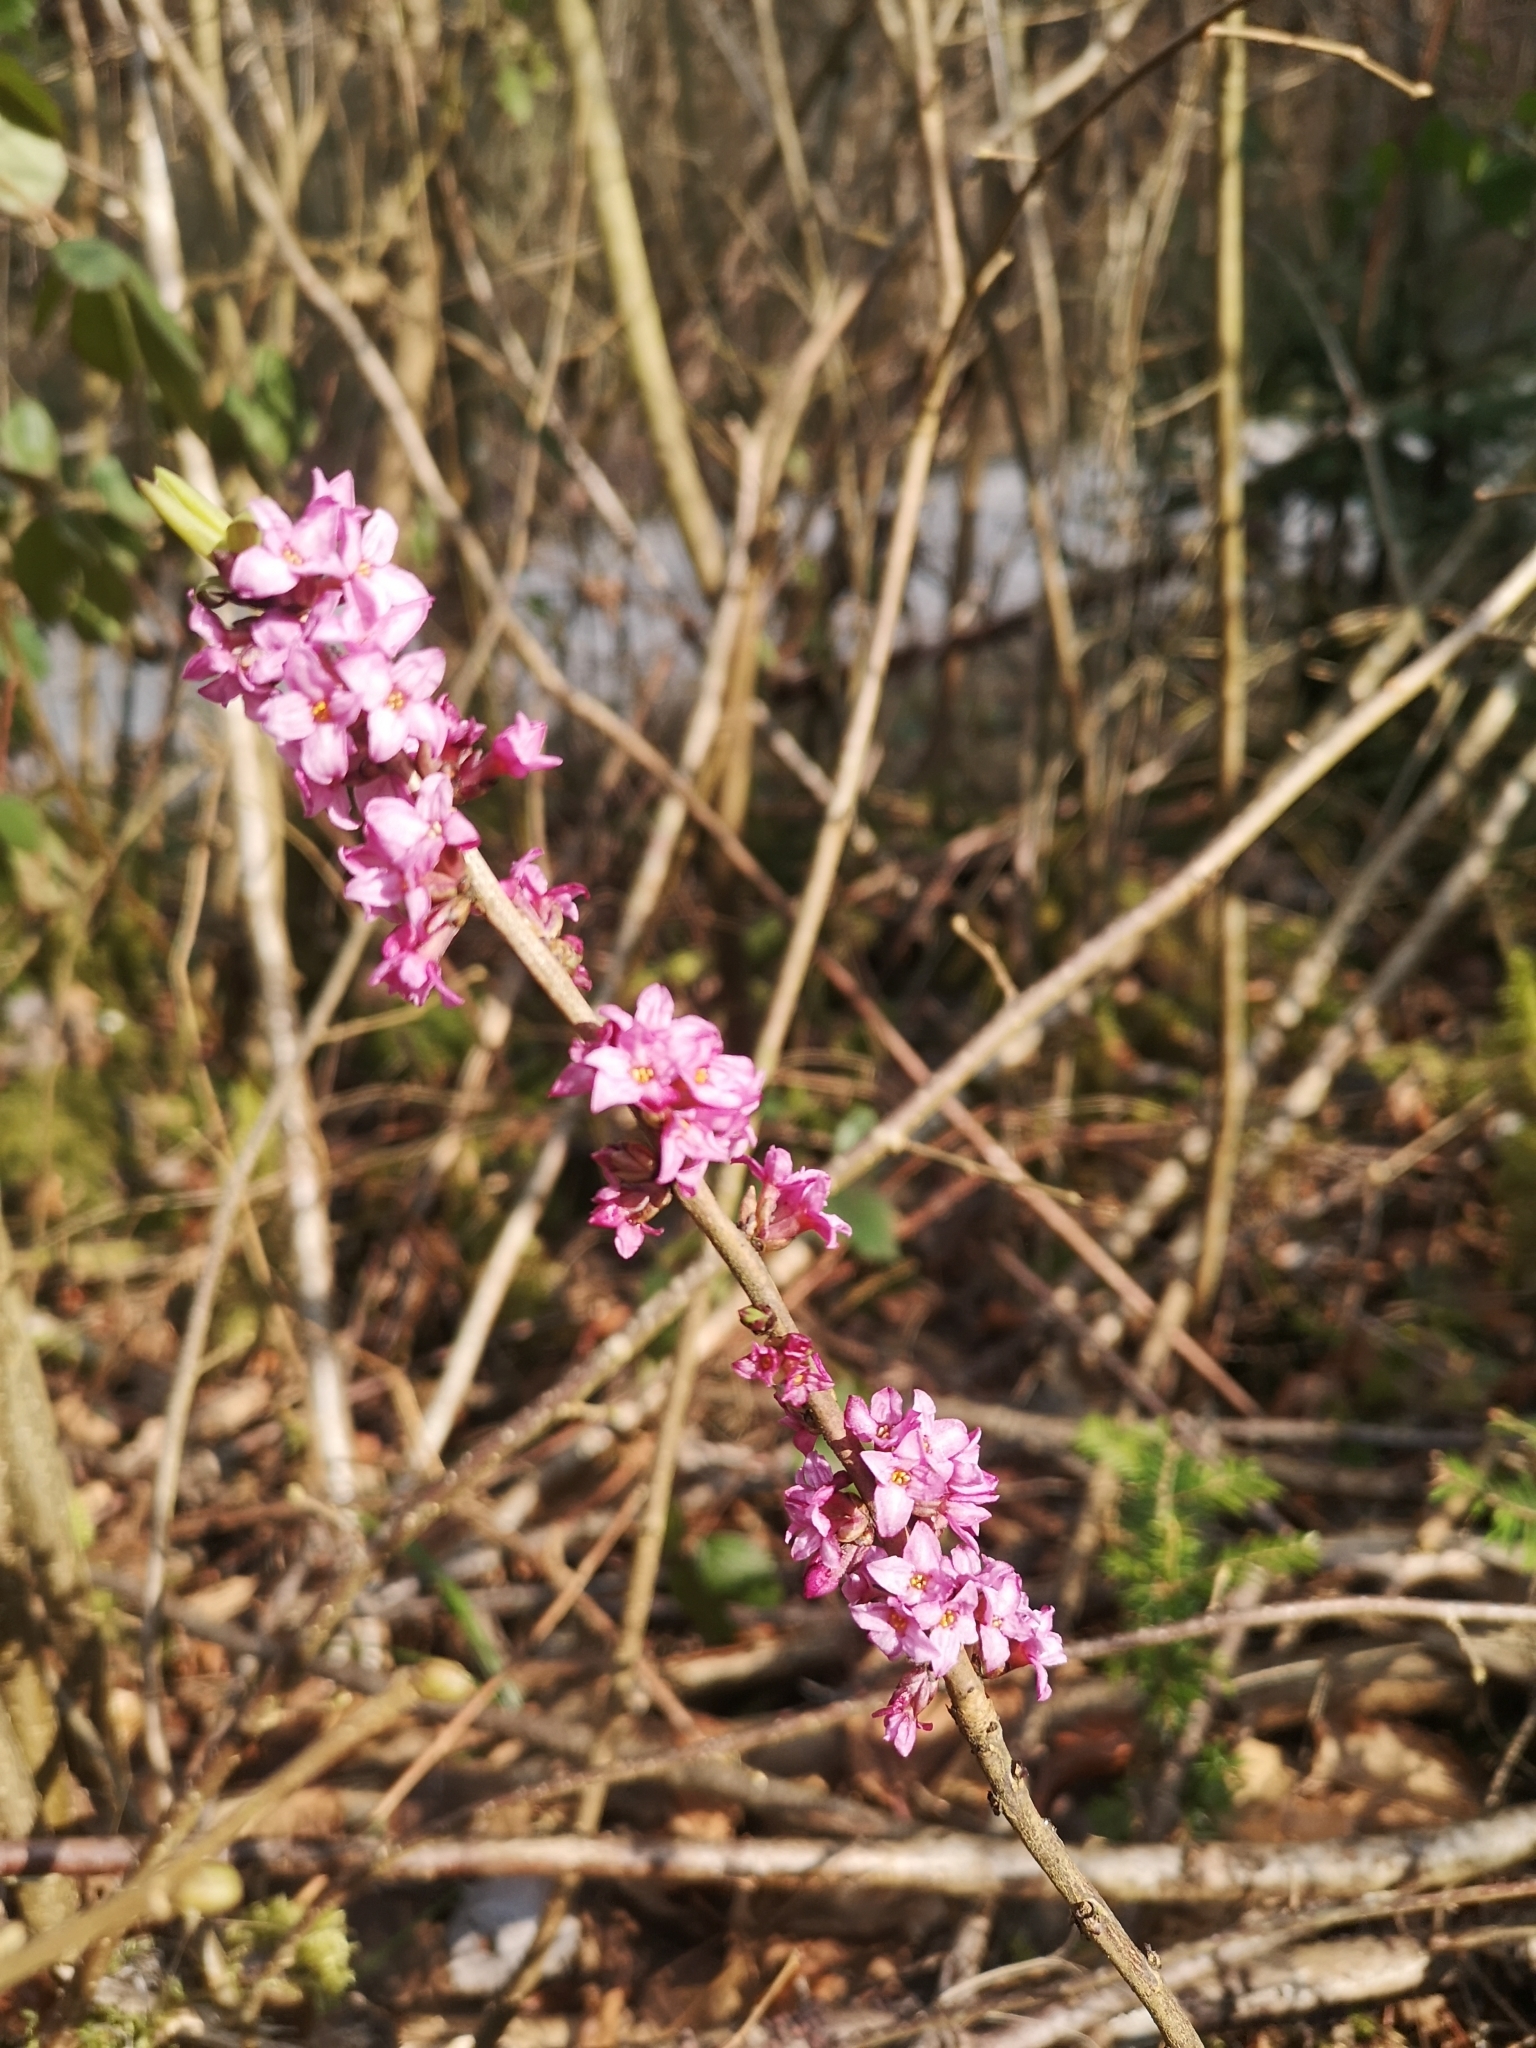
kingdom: Plantae
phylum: Tracheophyta
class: Magnoliopsida
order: Malvales
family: Thymelaeaceae
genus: Daphne
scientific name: Daphne mezereum
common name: Mezereon
